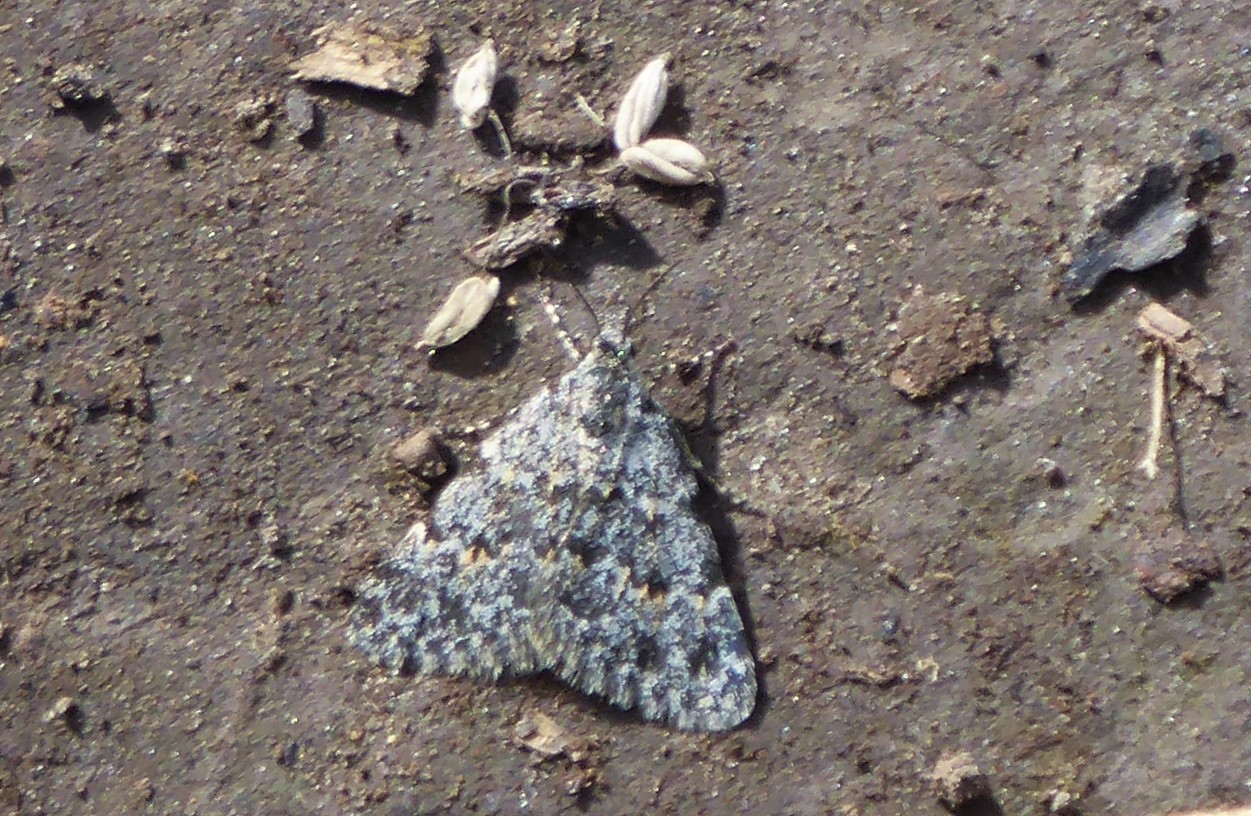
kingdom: Animalia
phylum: Arthropoda
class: Insecta
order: Lepidoptera
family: Geometridae
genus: Dichromodes
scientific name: Dichromodes cynica
